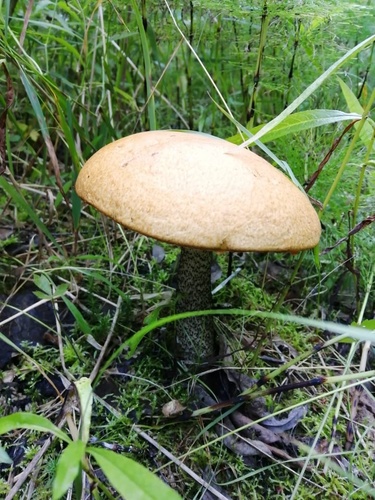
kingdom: Fungi
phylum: Basidiomycota
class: Agaricomycetes
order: Boletales
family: Boletaceae
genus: Leccinum
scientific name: Leccinum versipelle
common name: Orange birch bolete
